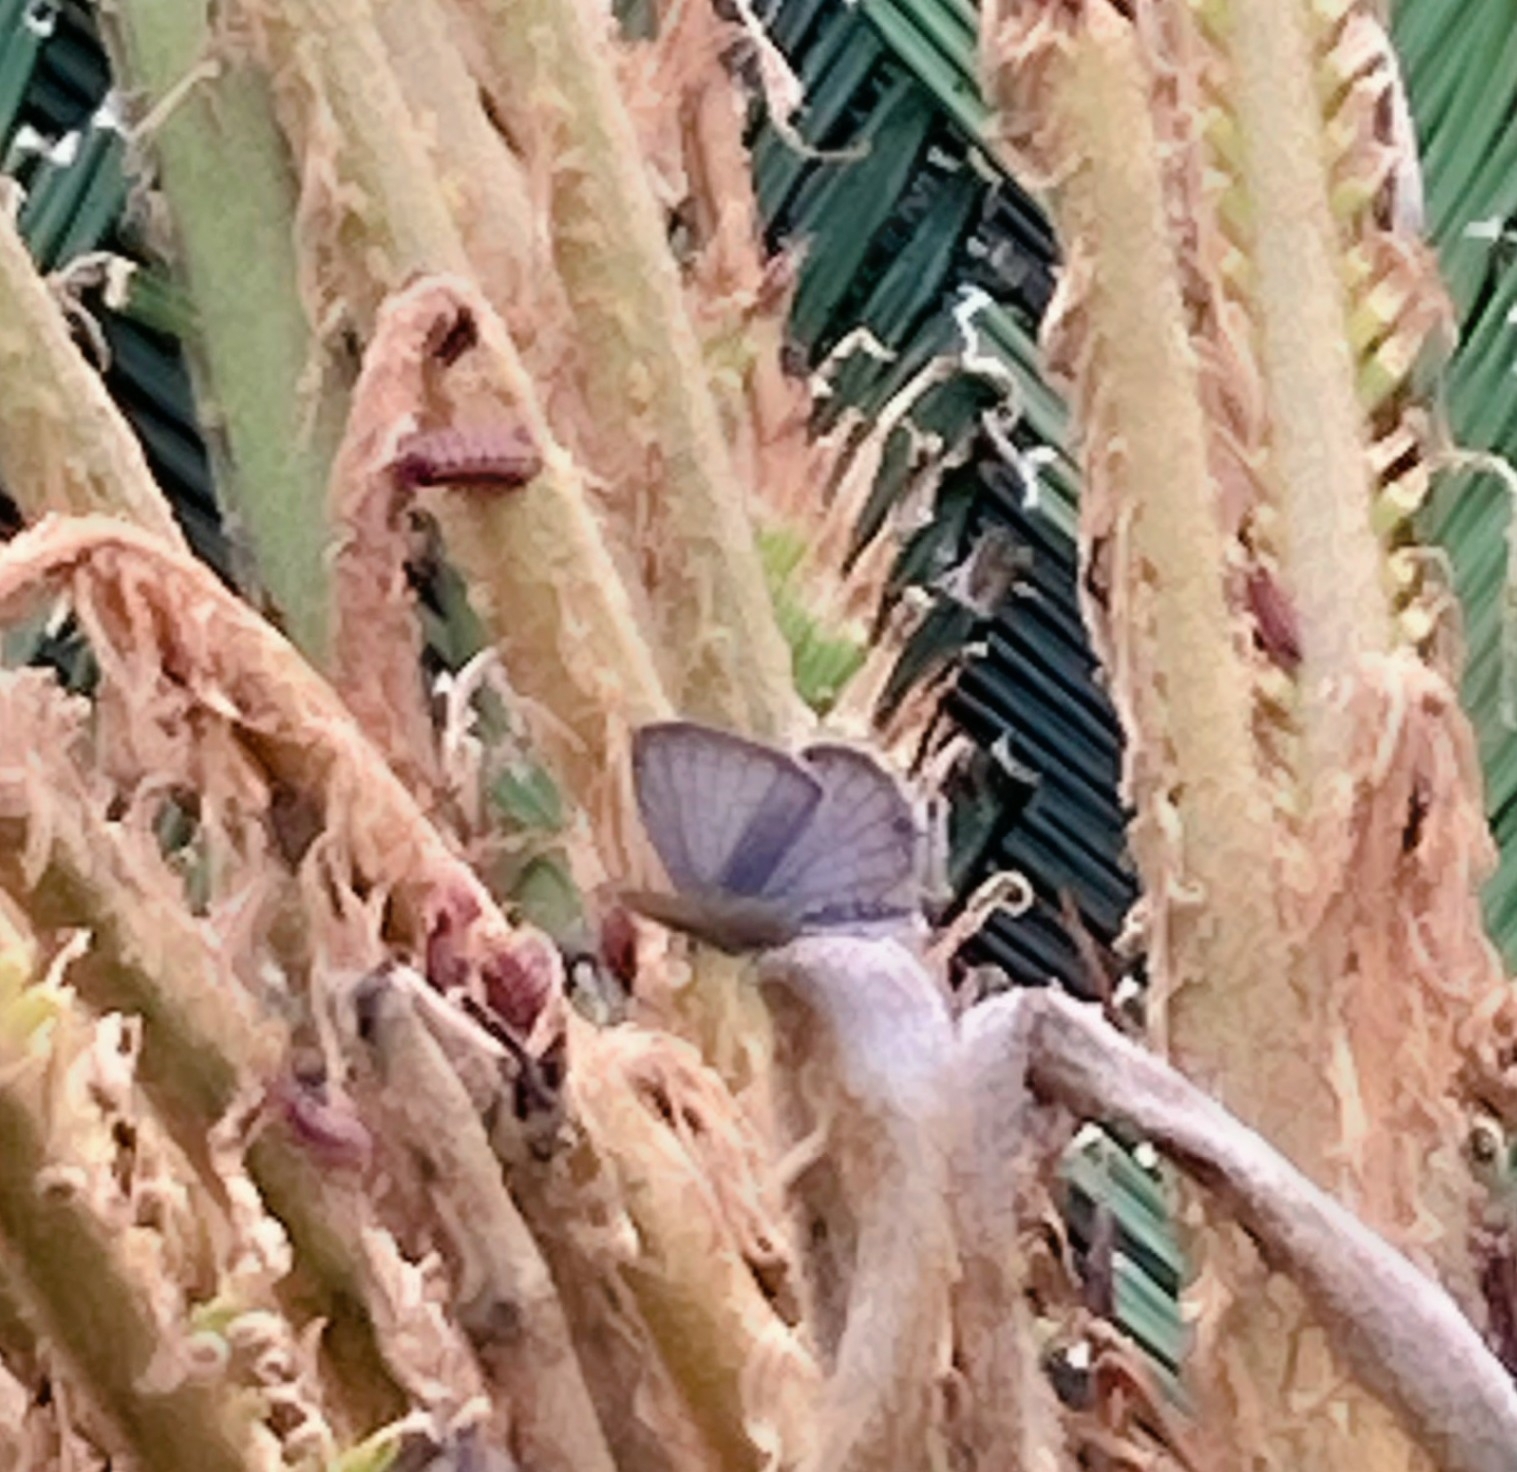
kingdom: Animalia
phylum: Arthropoda
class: Insecta
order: Lepidoptera
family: Lycaenidae
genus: Luthrodes
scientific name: Luthrodes pandava
